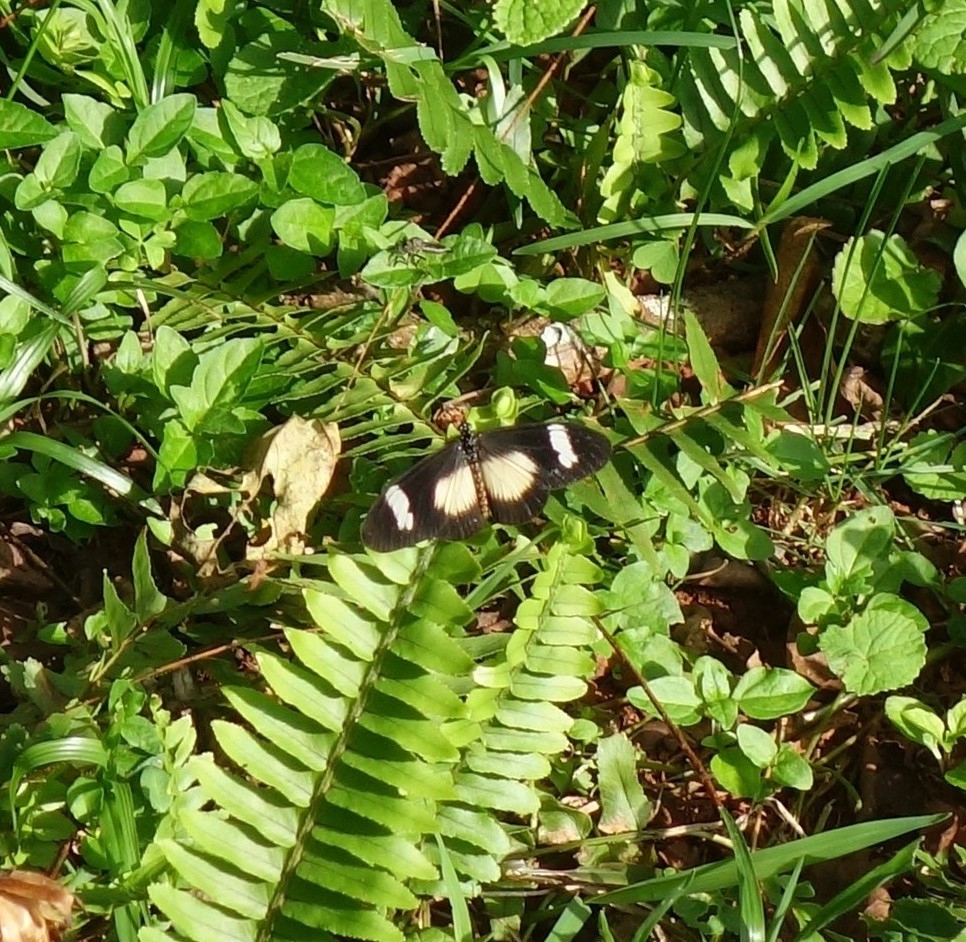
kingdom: Animalia
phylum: Arthropoda
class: Insecta
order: Lepidoptera
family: Nymphalidae
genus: Acraea
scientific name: Acraea esebria
